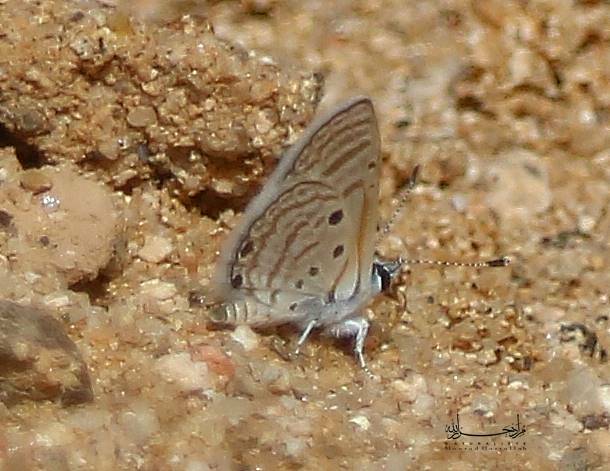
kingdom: Animalia
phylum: Arthropoda
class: Insecta
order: Lepidoptera
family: Lycaenidae
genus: Azanus
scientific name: Azanus ubaldus
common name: Desert babul blue
